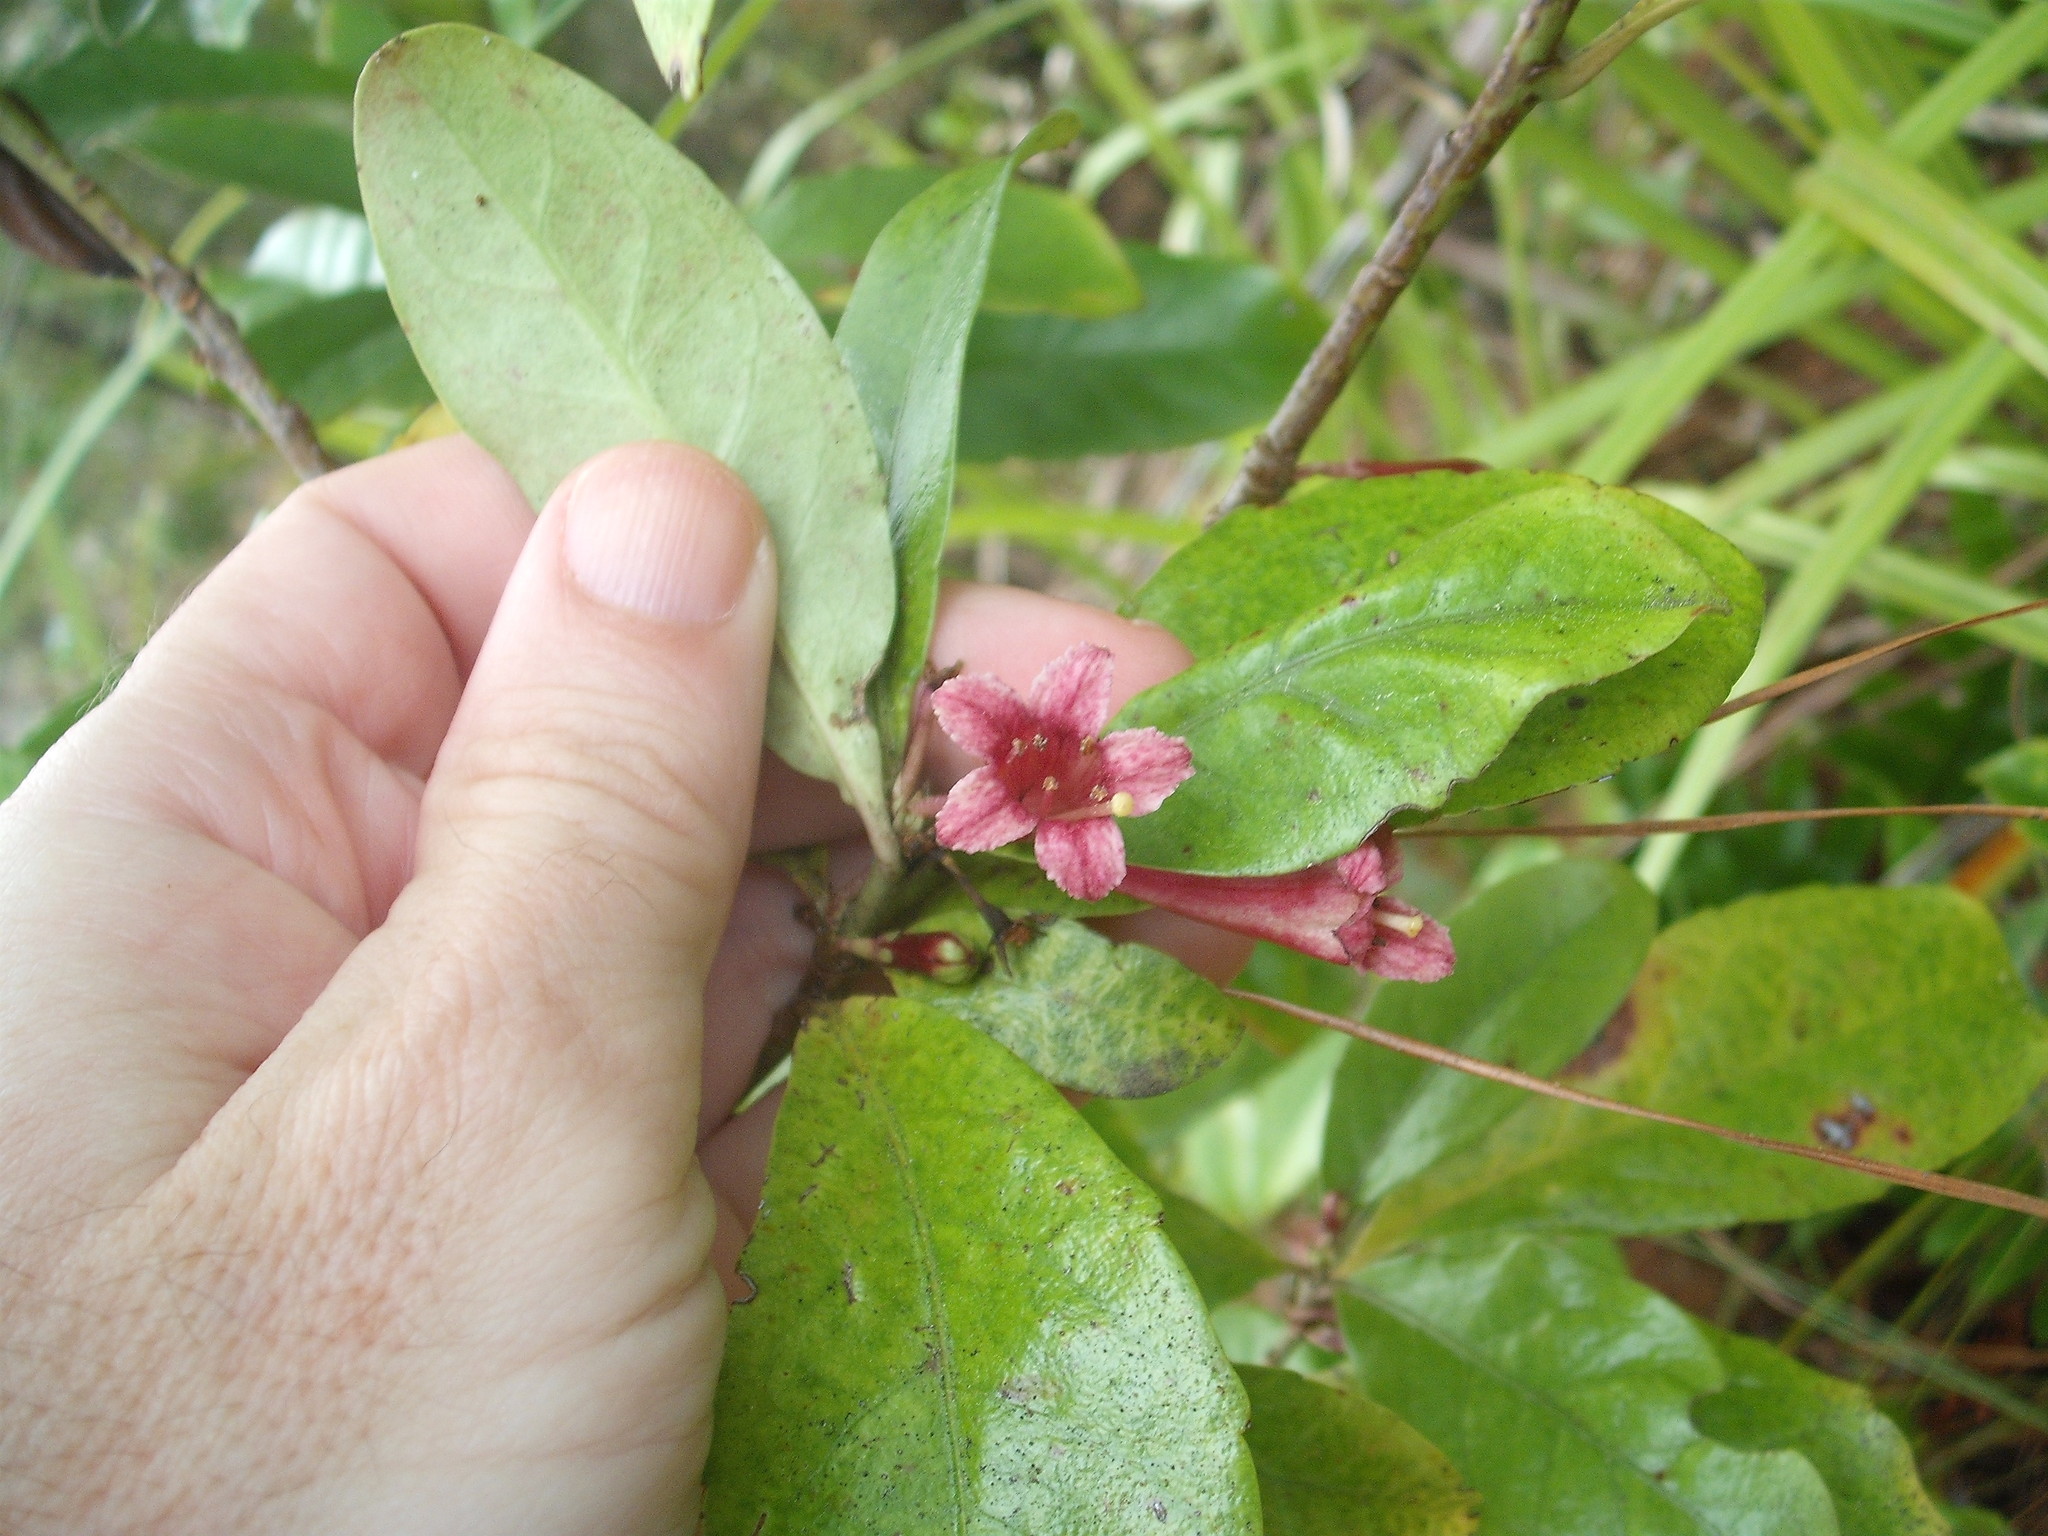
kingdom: Plantae
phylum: Tracheophyta
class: Magnoliopsida
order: Asterales
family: Alseuosmiaceae
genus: Alseuosmia
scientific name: Alseuosmia macrophylla
